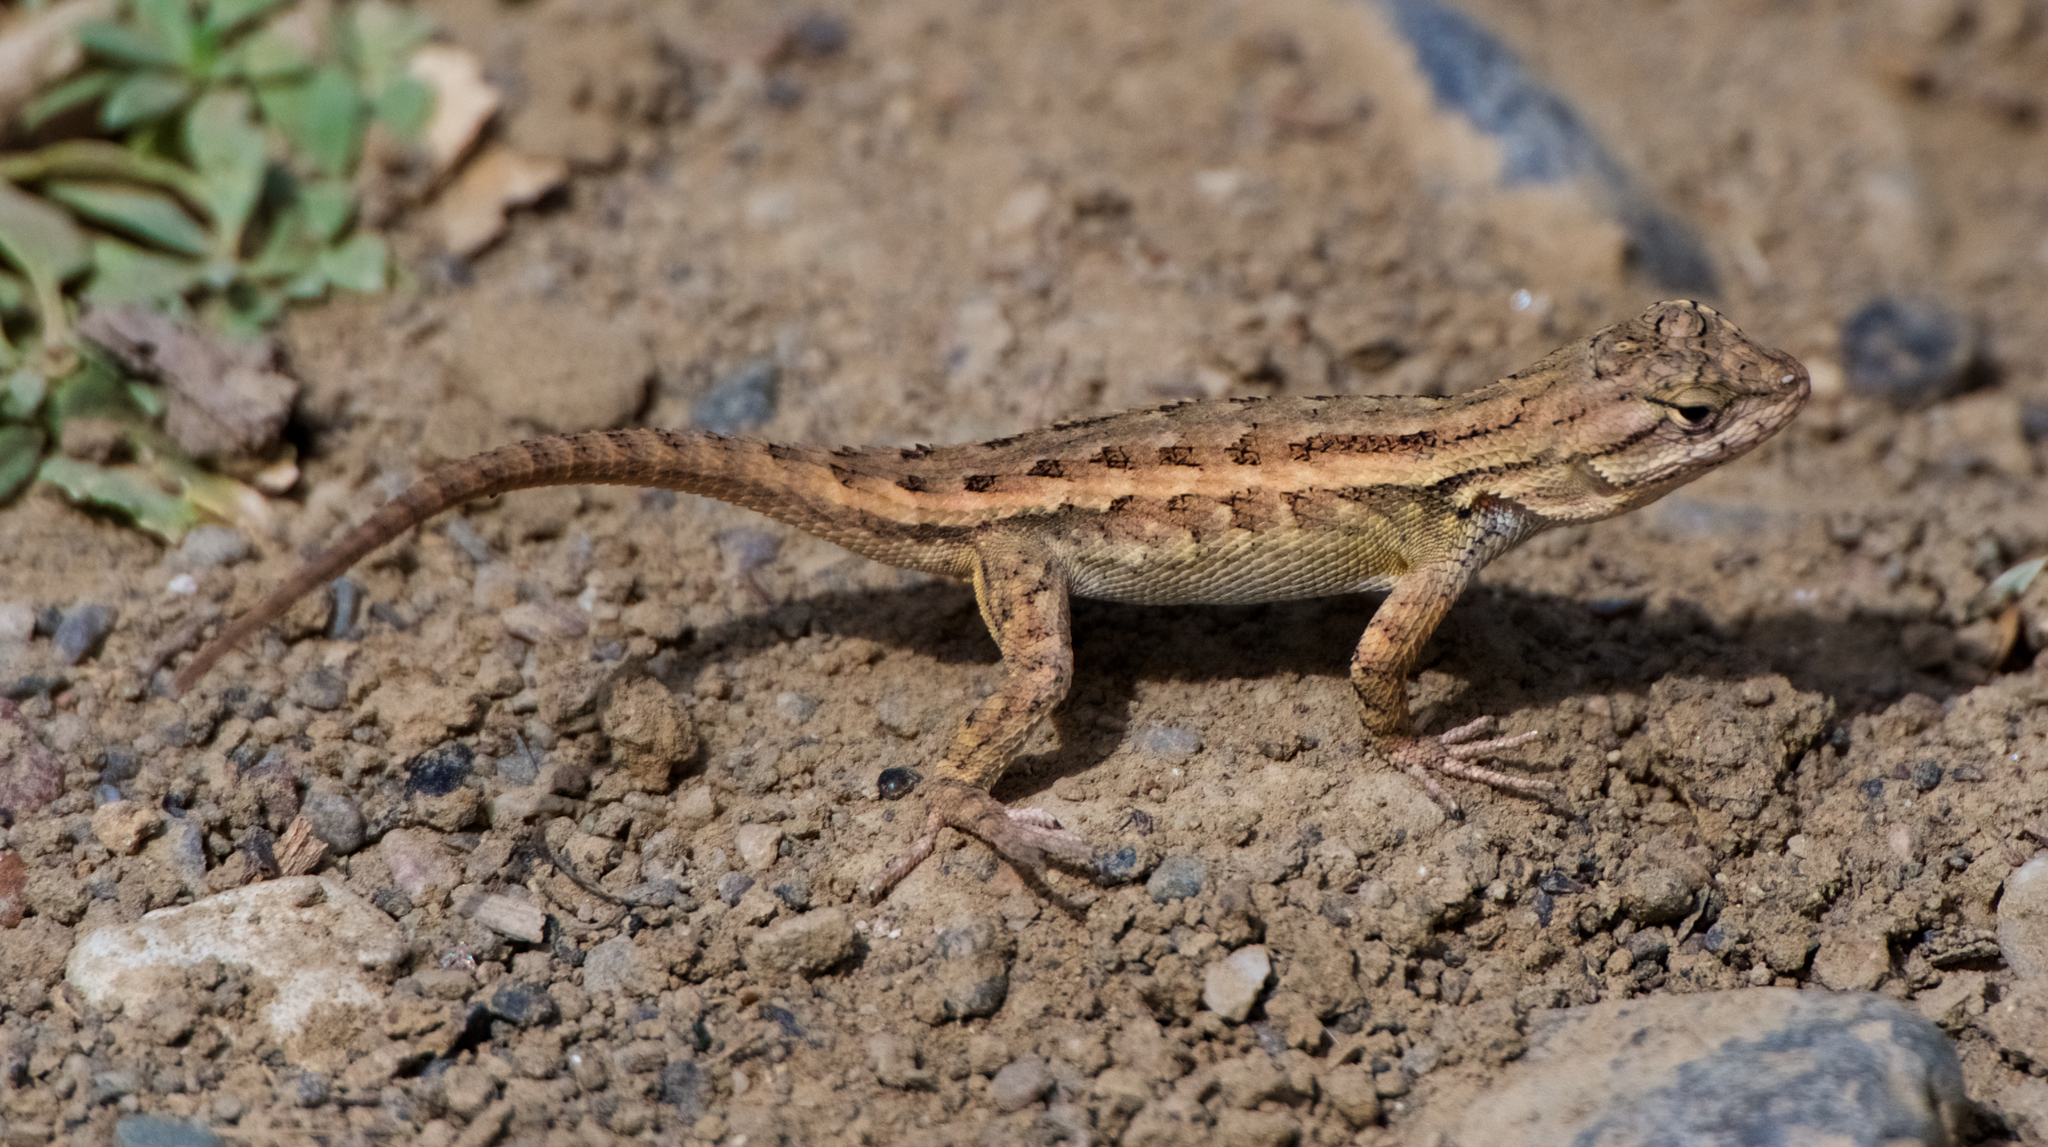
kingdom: Animalia
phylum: Chordata
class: Squamata
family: Phrynosomatidae
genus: Sceloporus
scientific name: Sceloporus occidentalis
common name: Western fence lizard
